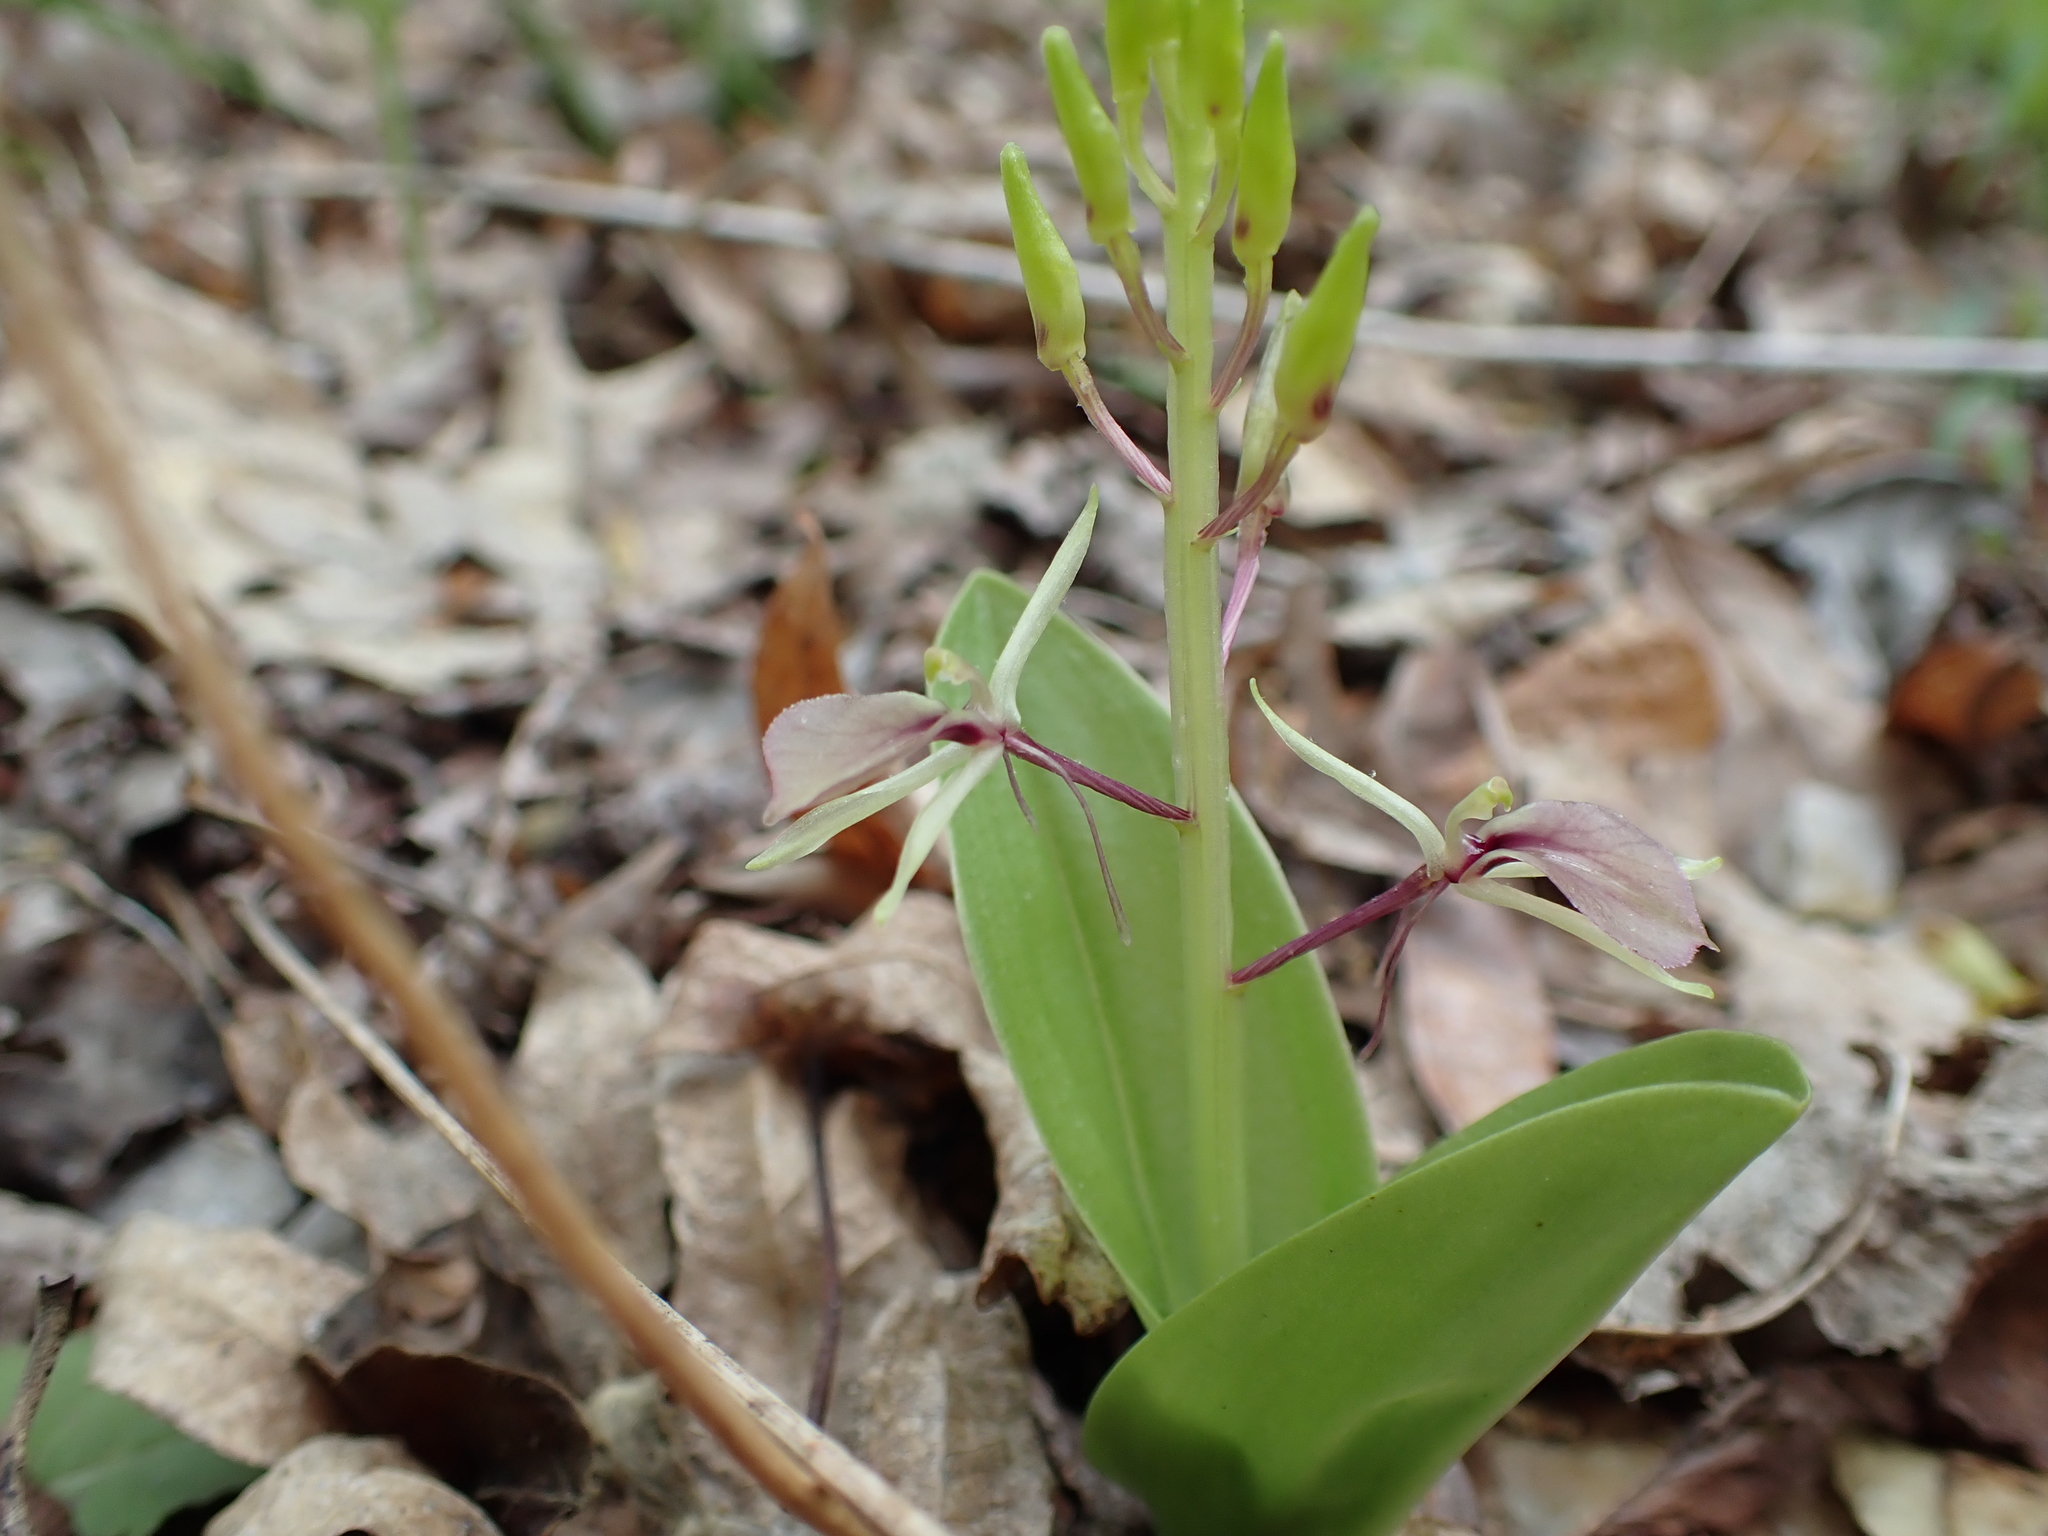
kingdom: Plantae
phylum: Tracheophyta
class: Liliopsida
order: Asparagales
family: Orchidaceae
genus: Liparis
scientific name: Liparis liliifolia
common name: Brown wide-lip orchid
